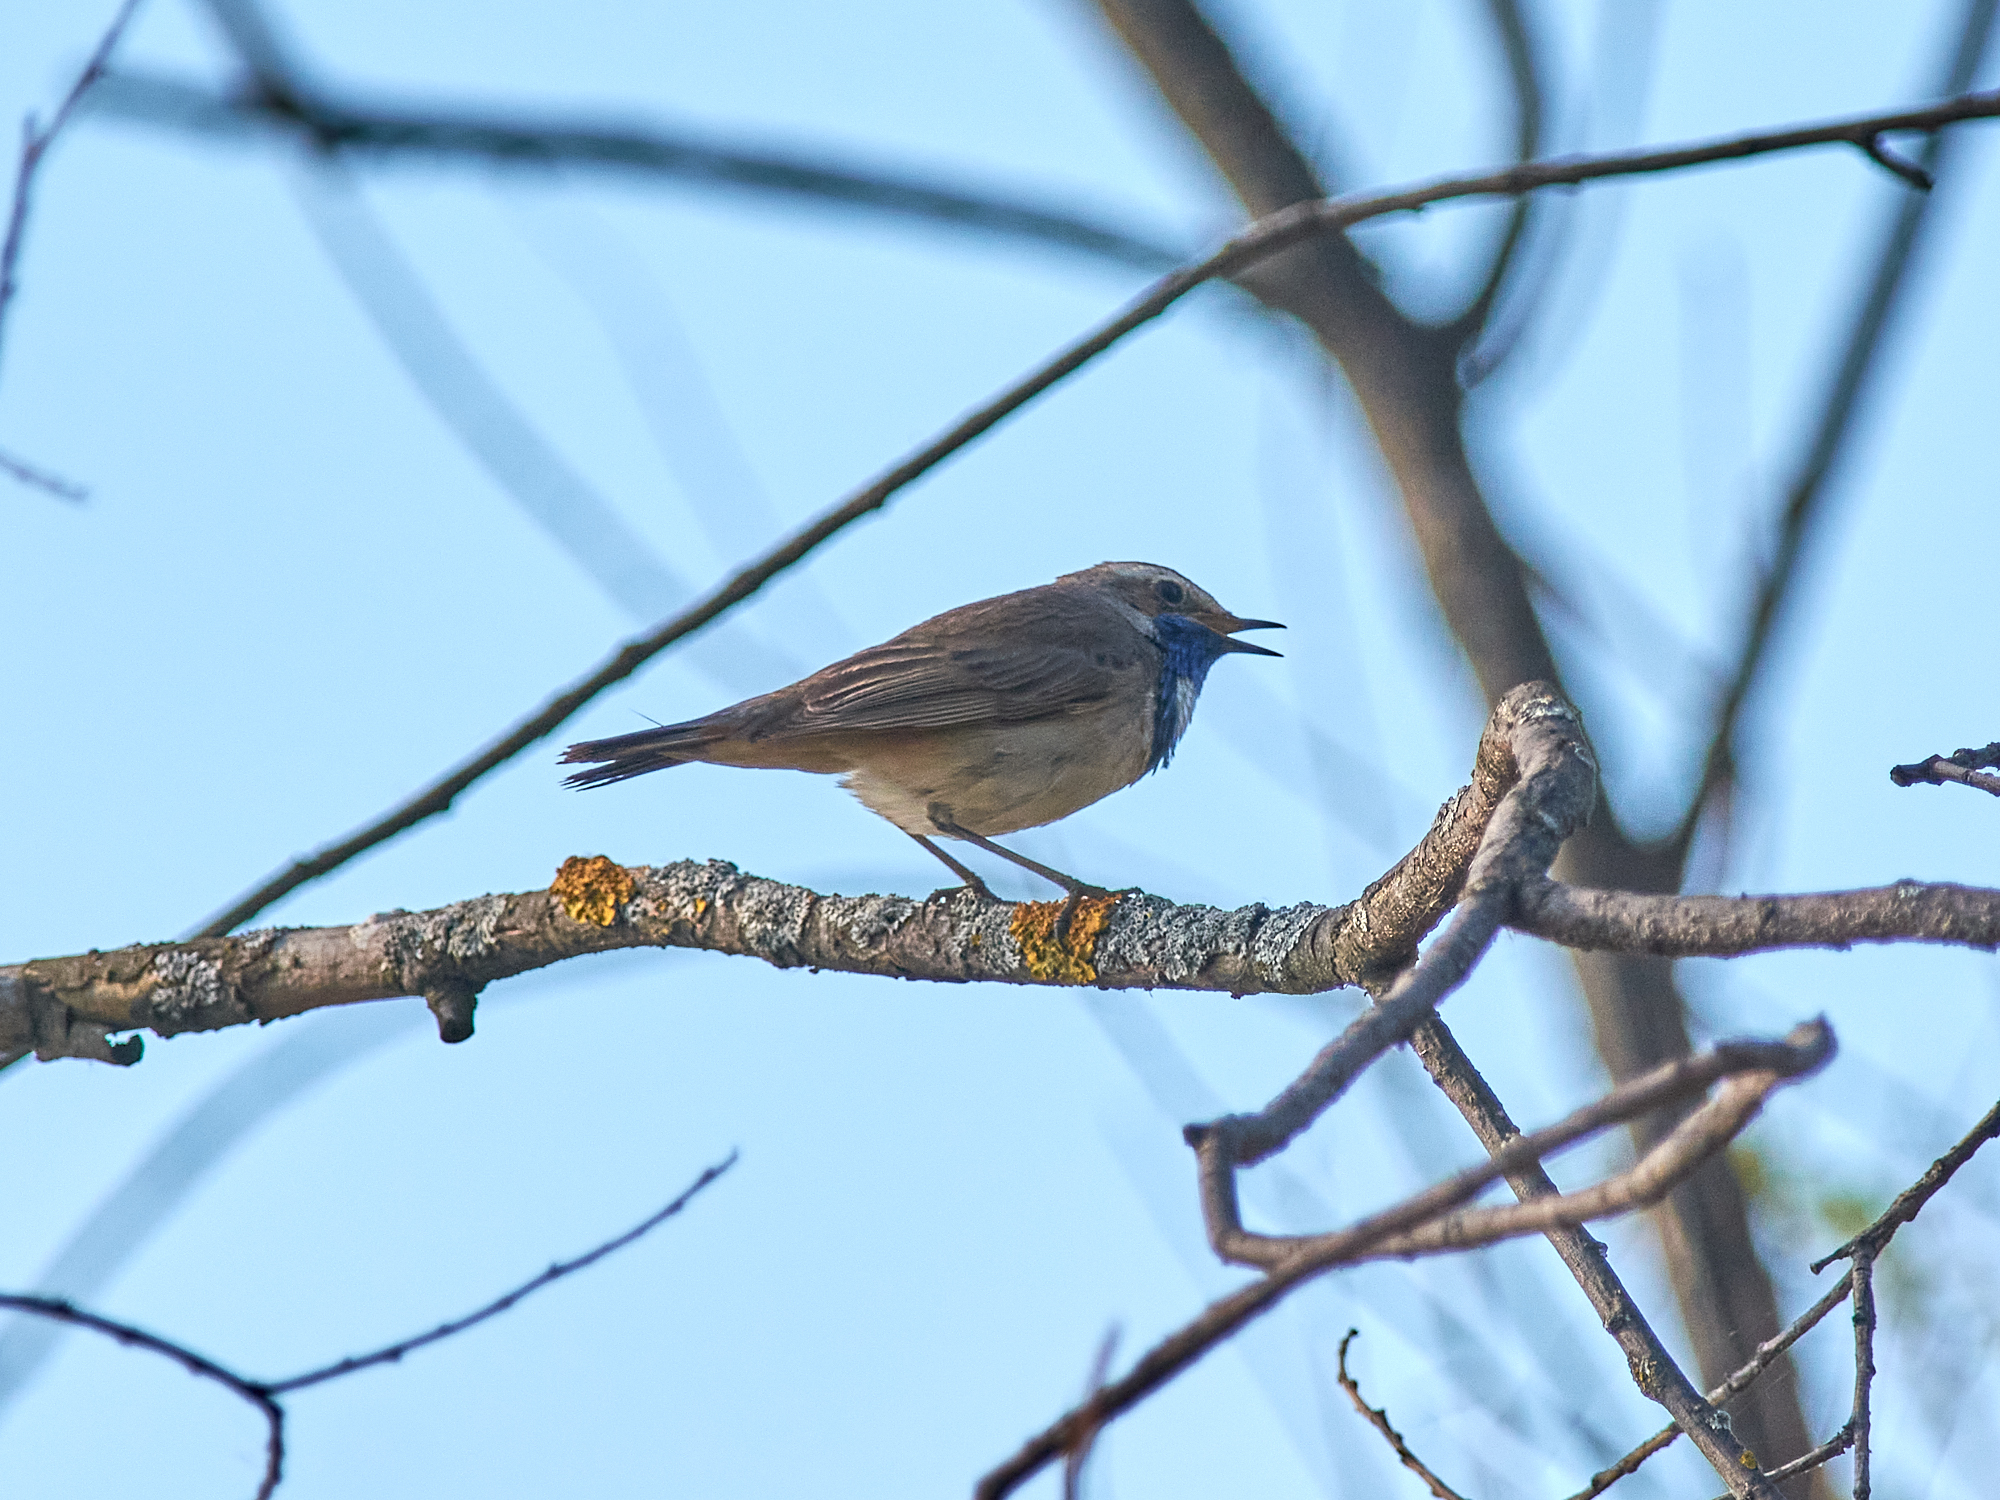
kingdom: Animalia
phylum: Chordata
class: Aves
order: Passeriformes
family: Muscicapidae
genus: Luscinia
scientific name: Luscinia svecica
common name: Bluethroat
